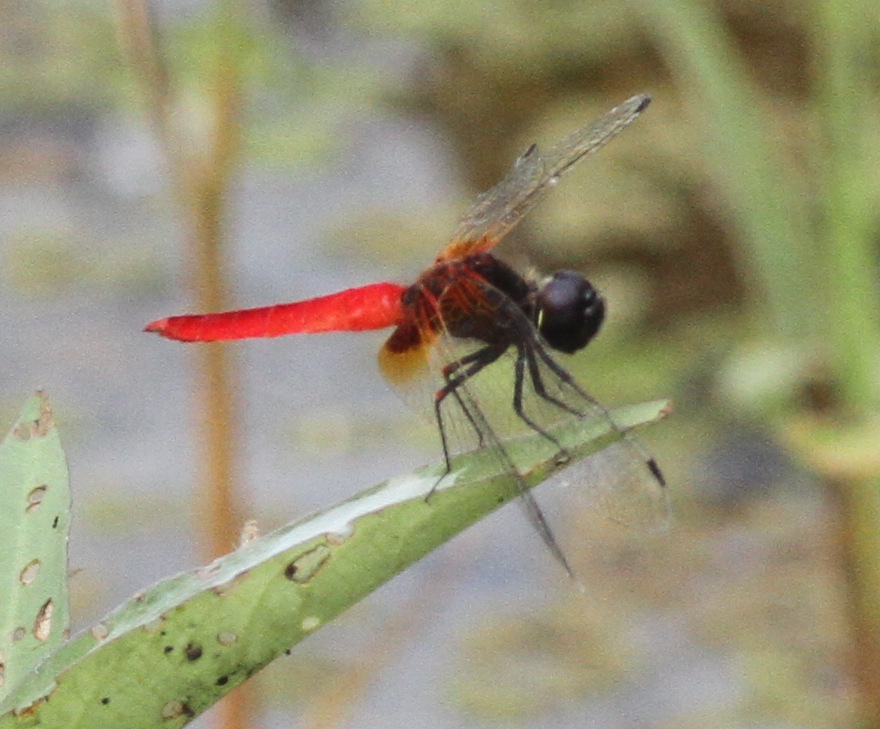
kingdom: Animalia
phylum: Arthropoda
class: Insecta
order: Odonata
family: Libellulidae
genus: Aethriamanta
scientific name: Aethriamanta brevipennis
